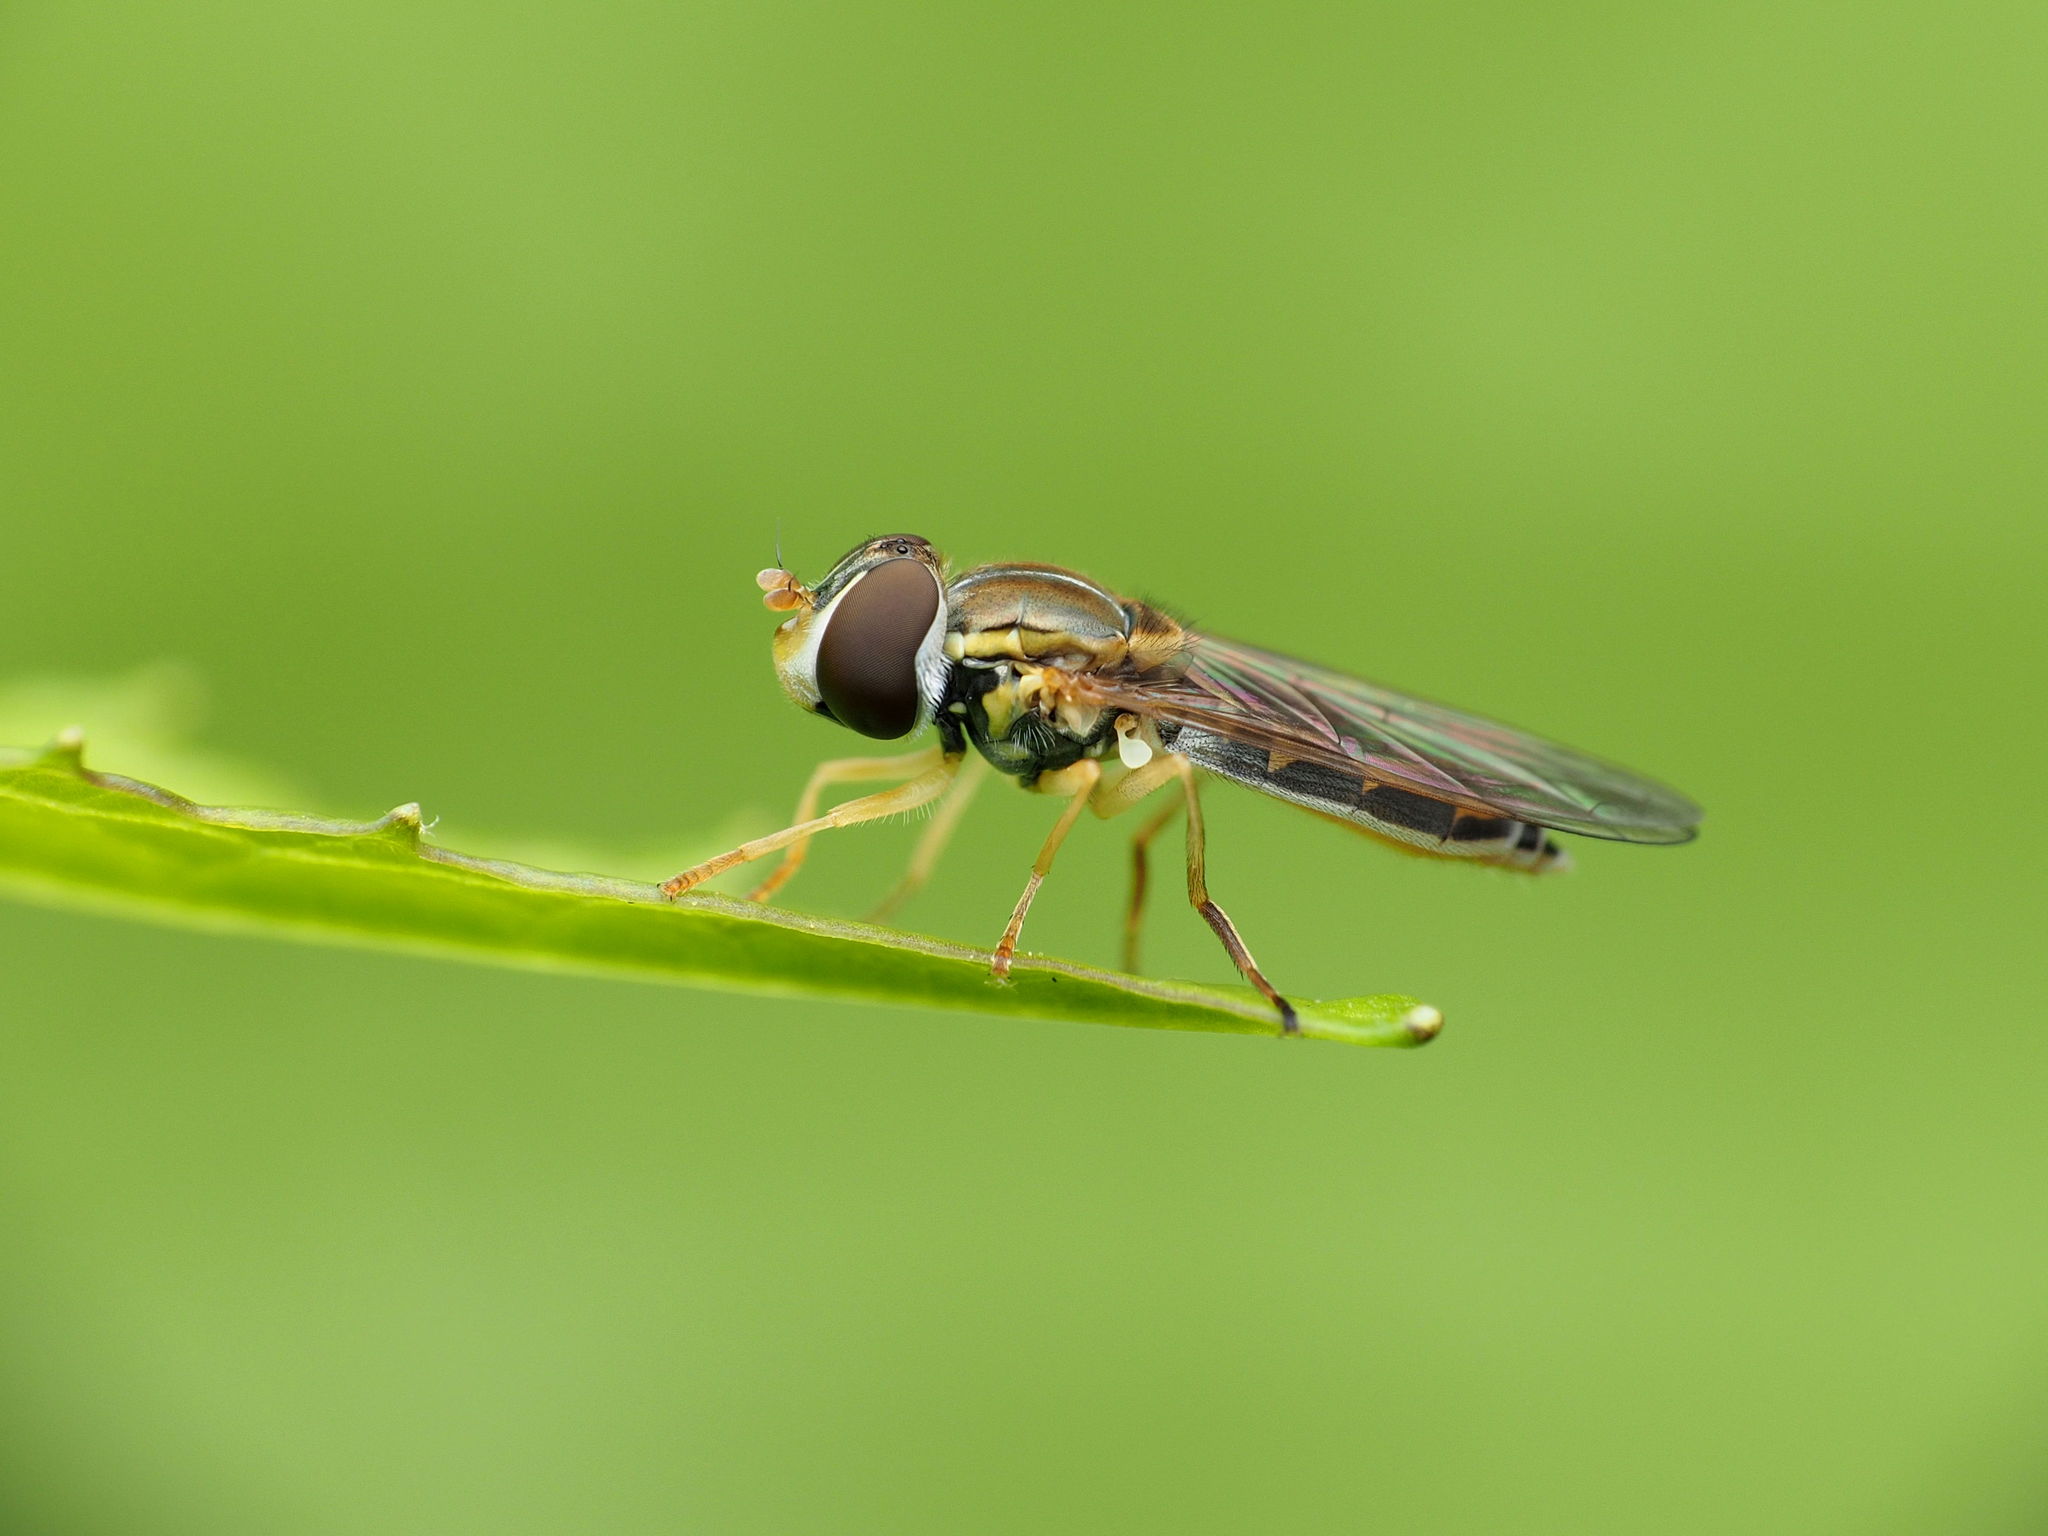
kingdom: Animalia
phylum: Arthropoda
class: Insecta
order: Diptera
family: Syrphidae
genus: Toxomerus
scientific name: Toxomerus marginatus
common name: Syrphid fly
